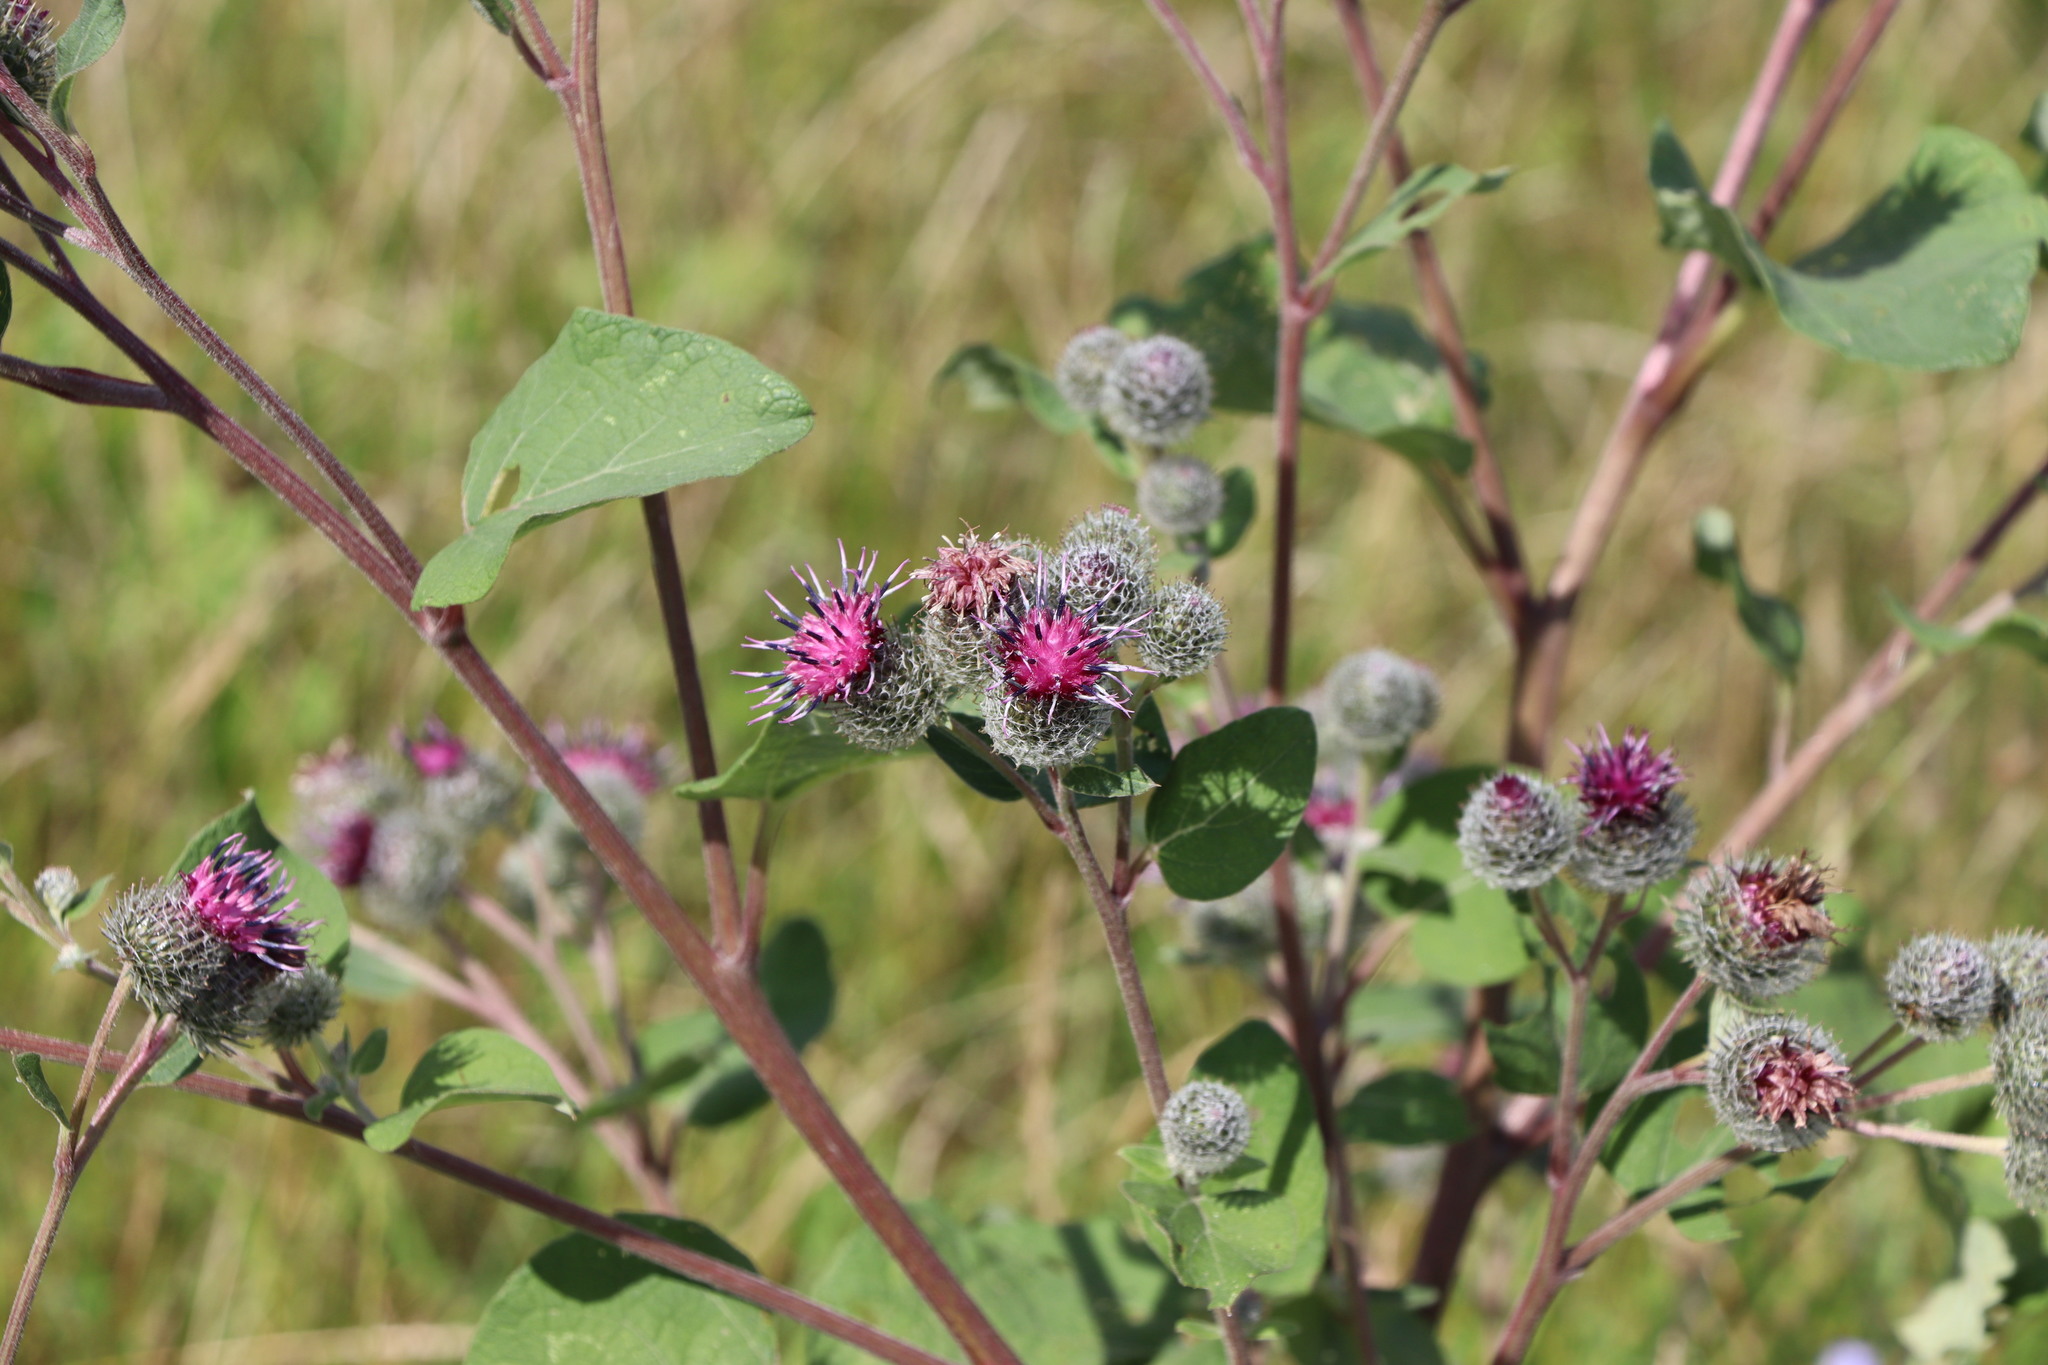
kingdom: Plantae
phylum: Tracheophyta
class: Magnoliopsida
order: Asterales
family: Asteraceae
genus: Arctium
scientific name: Arctium tomentosum
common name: Woolly burdock
